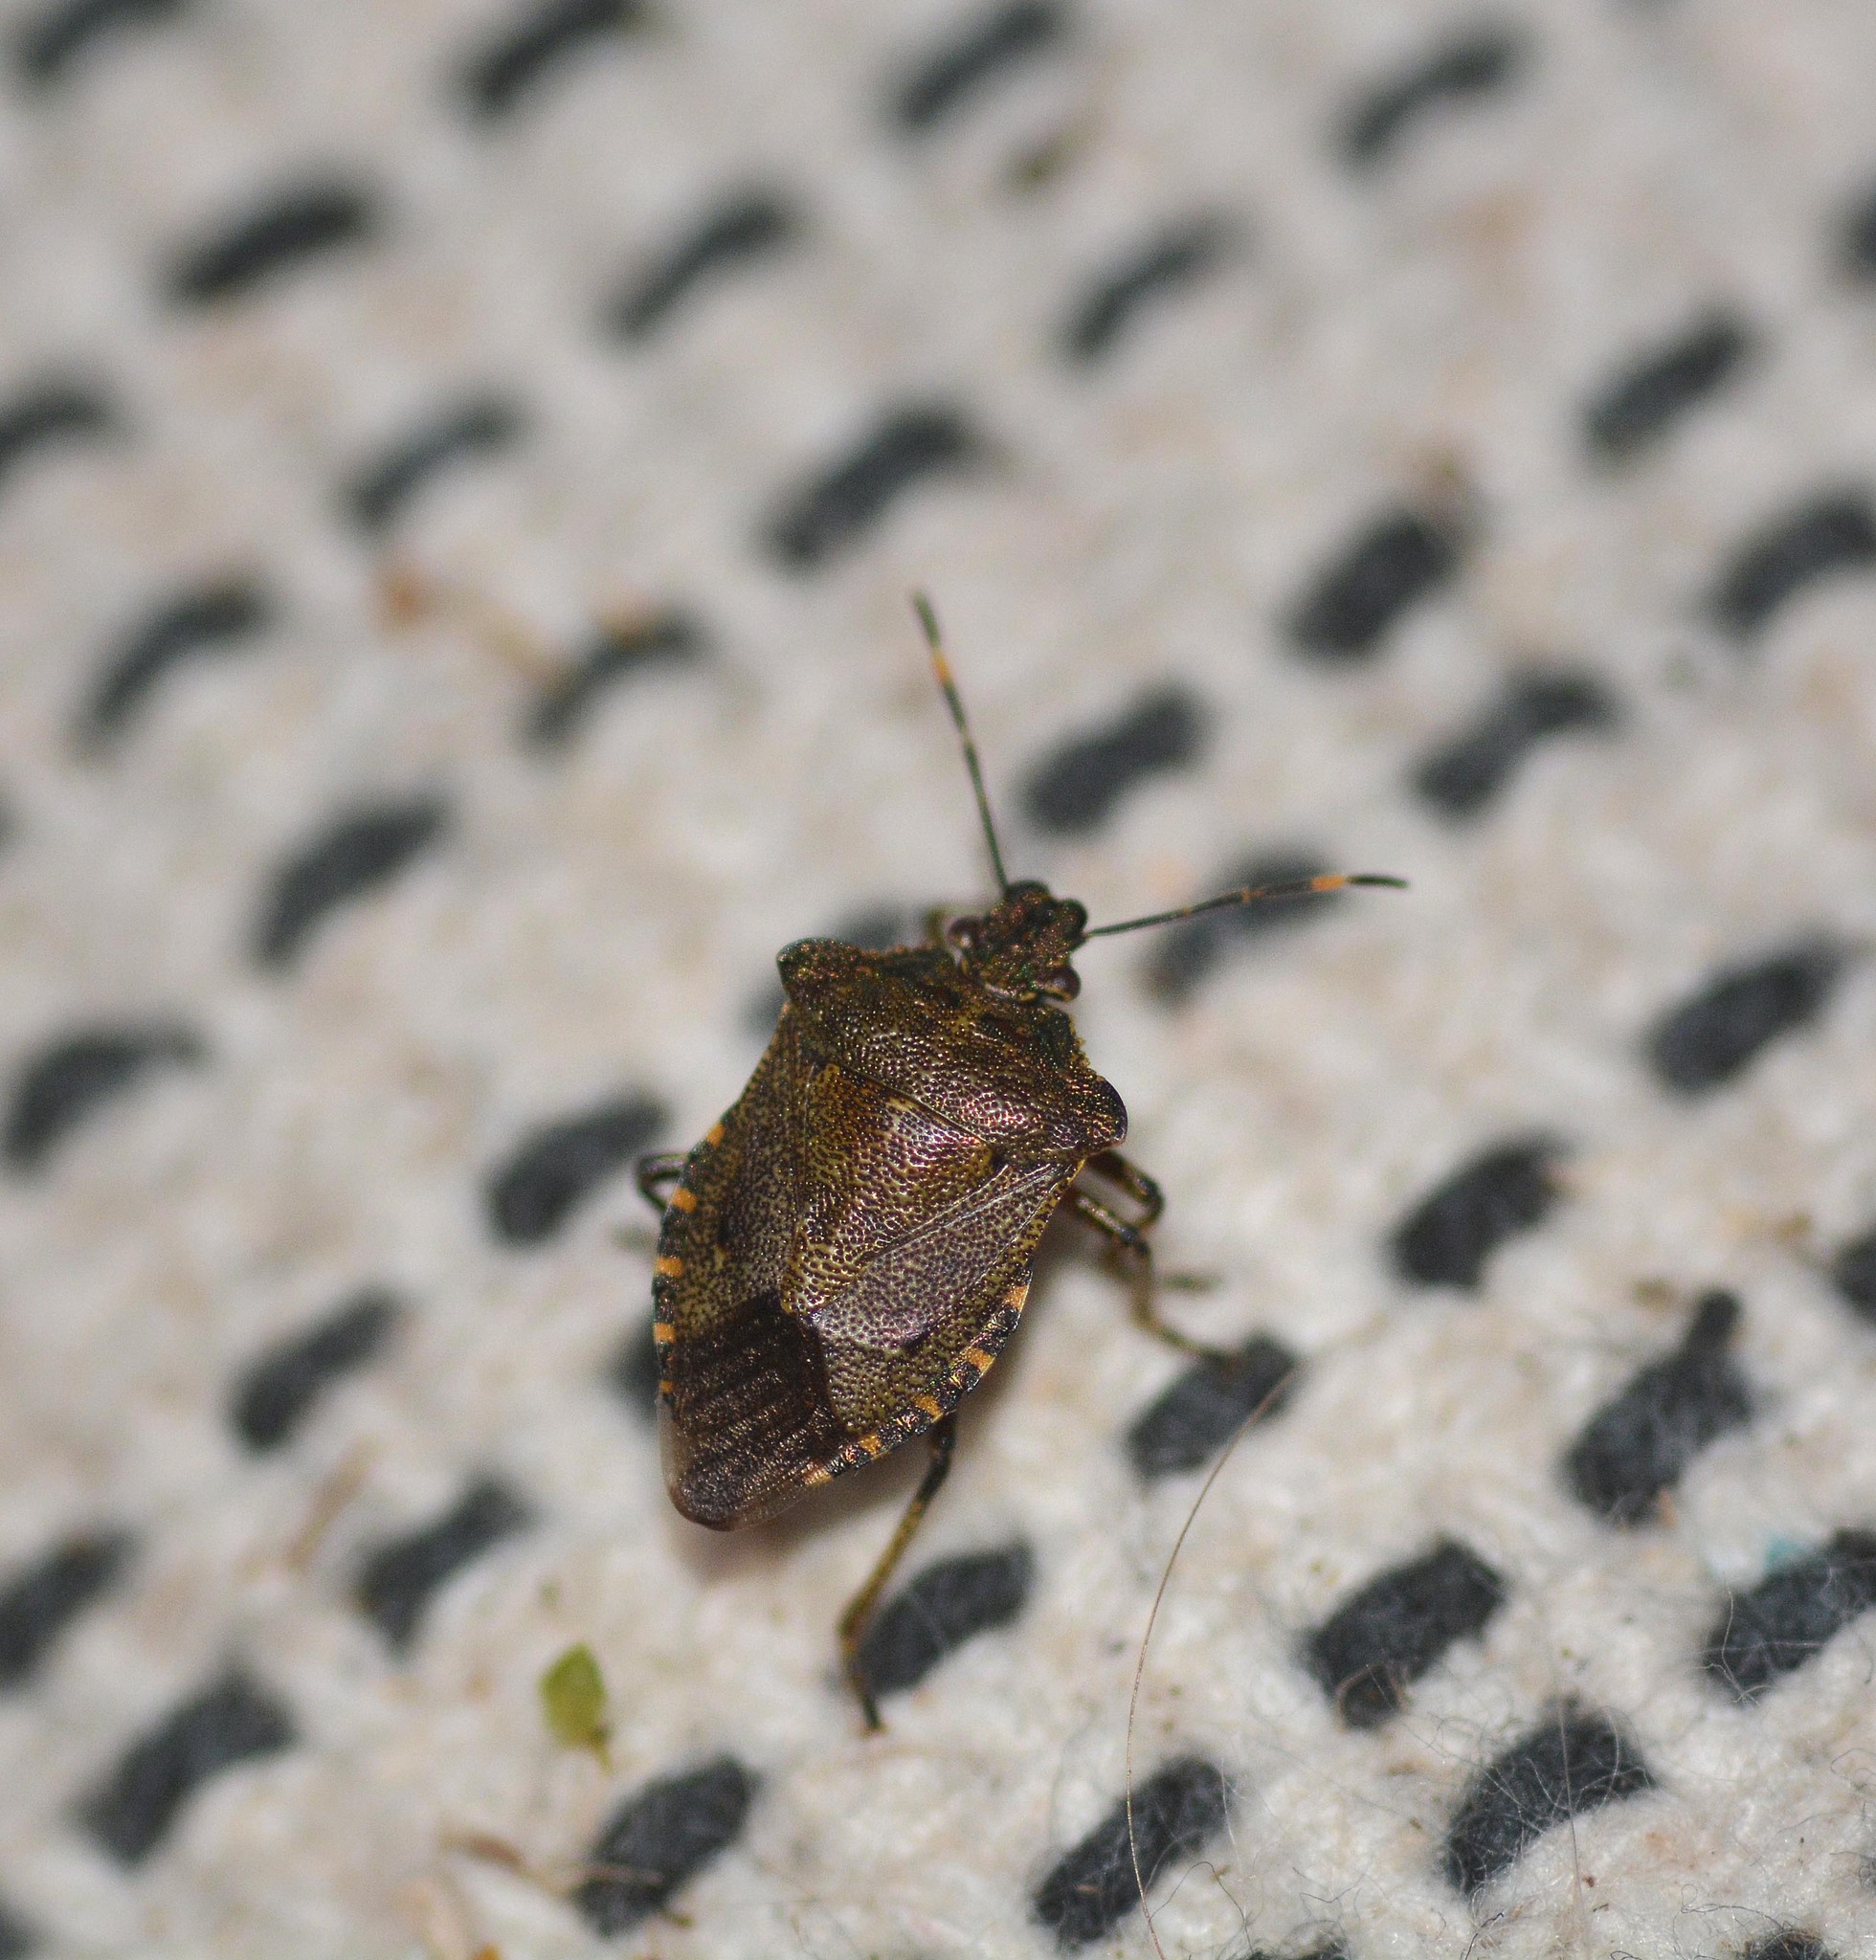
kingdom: Animalia
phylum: Arthropoda
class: Insecta
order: Hemiptera
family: Pentatomidae
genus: Troilus
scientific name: Troilus luridus
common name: Bronze shieldbug
